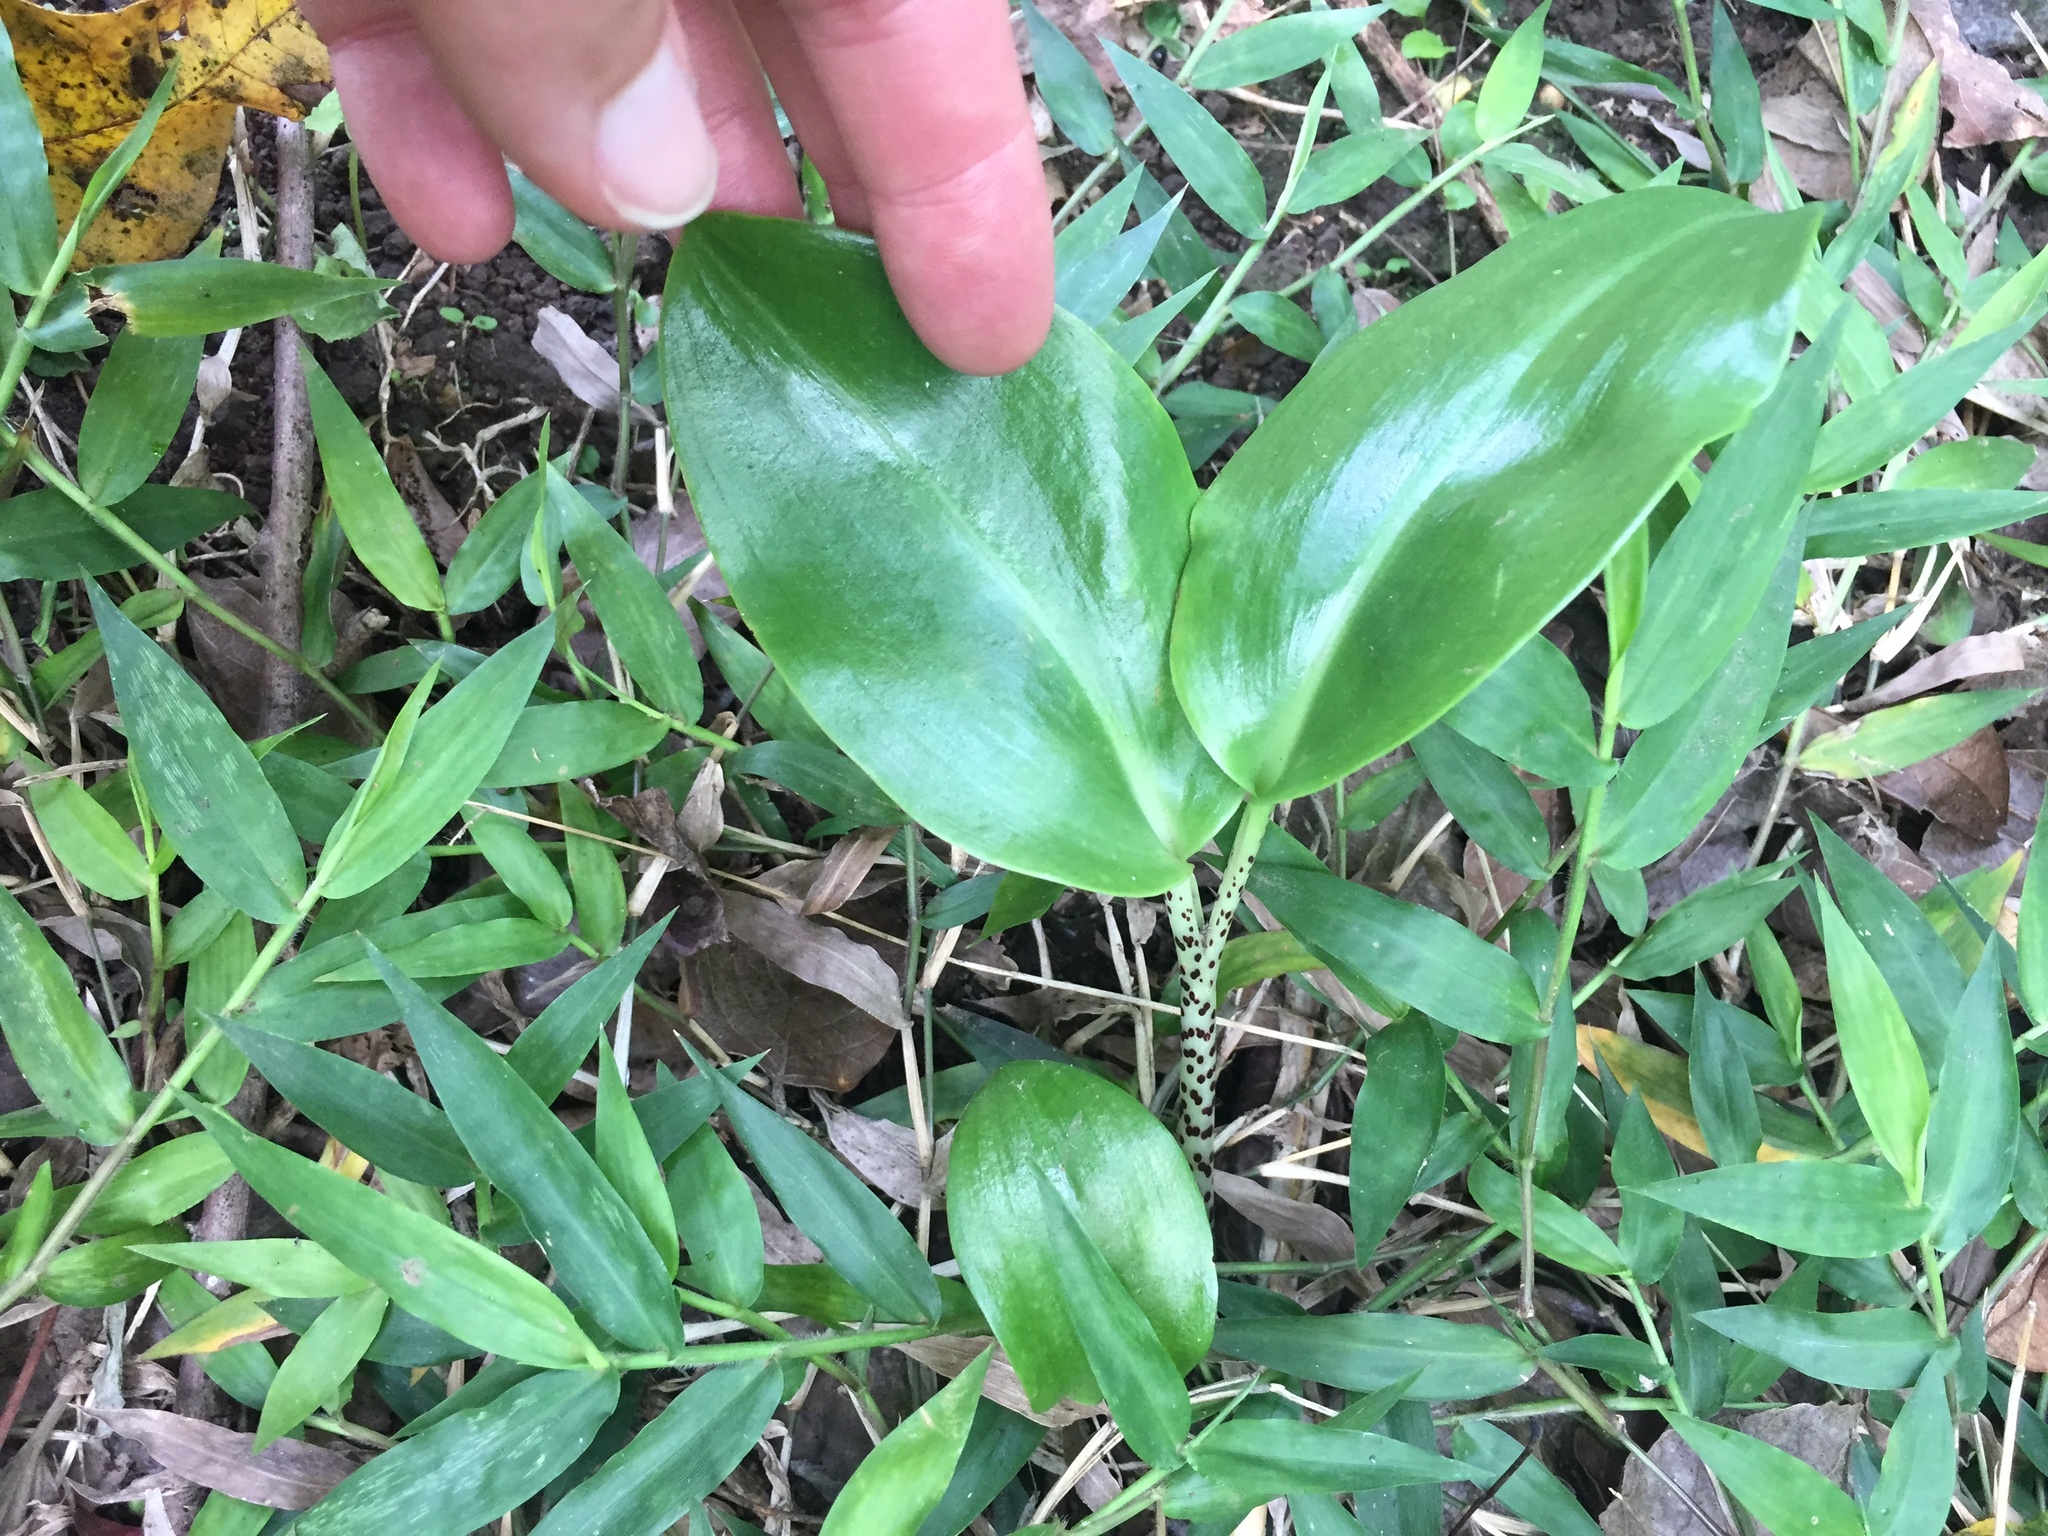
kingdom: Plantae
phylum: Tracheophyta
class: Liliopsida
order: Asparagales
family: Amaryllidaceae
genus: Scadoxus
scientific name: Scadoxus membranaceus
